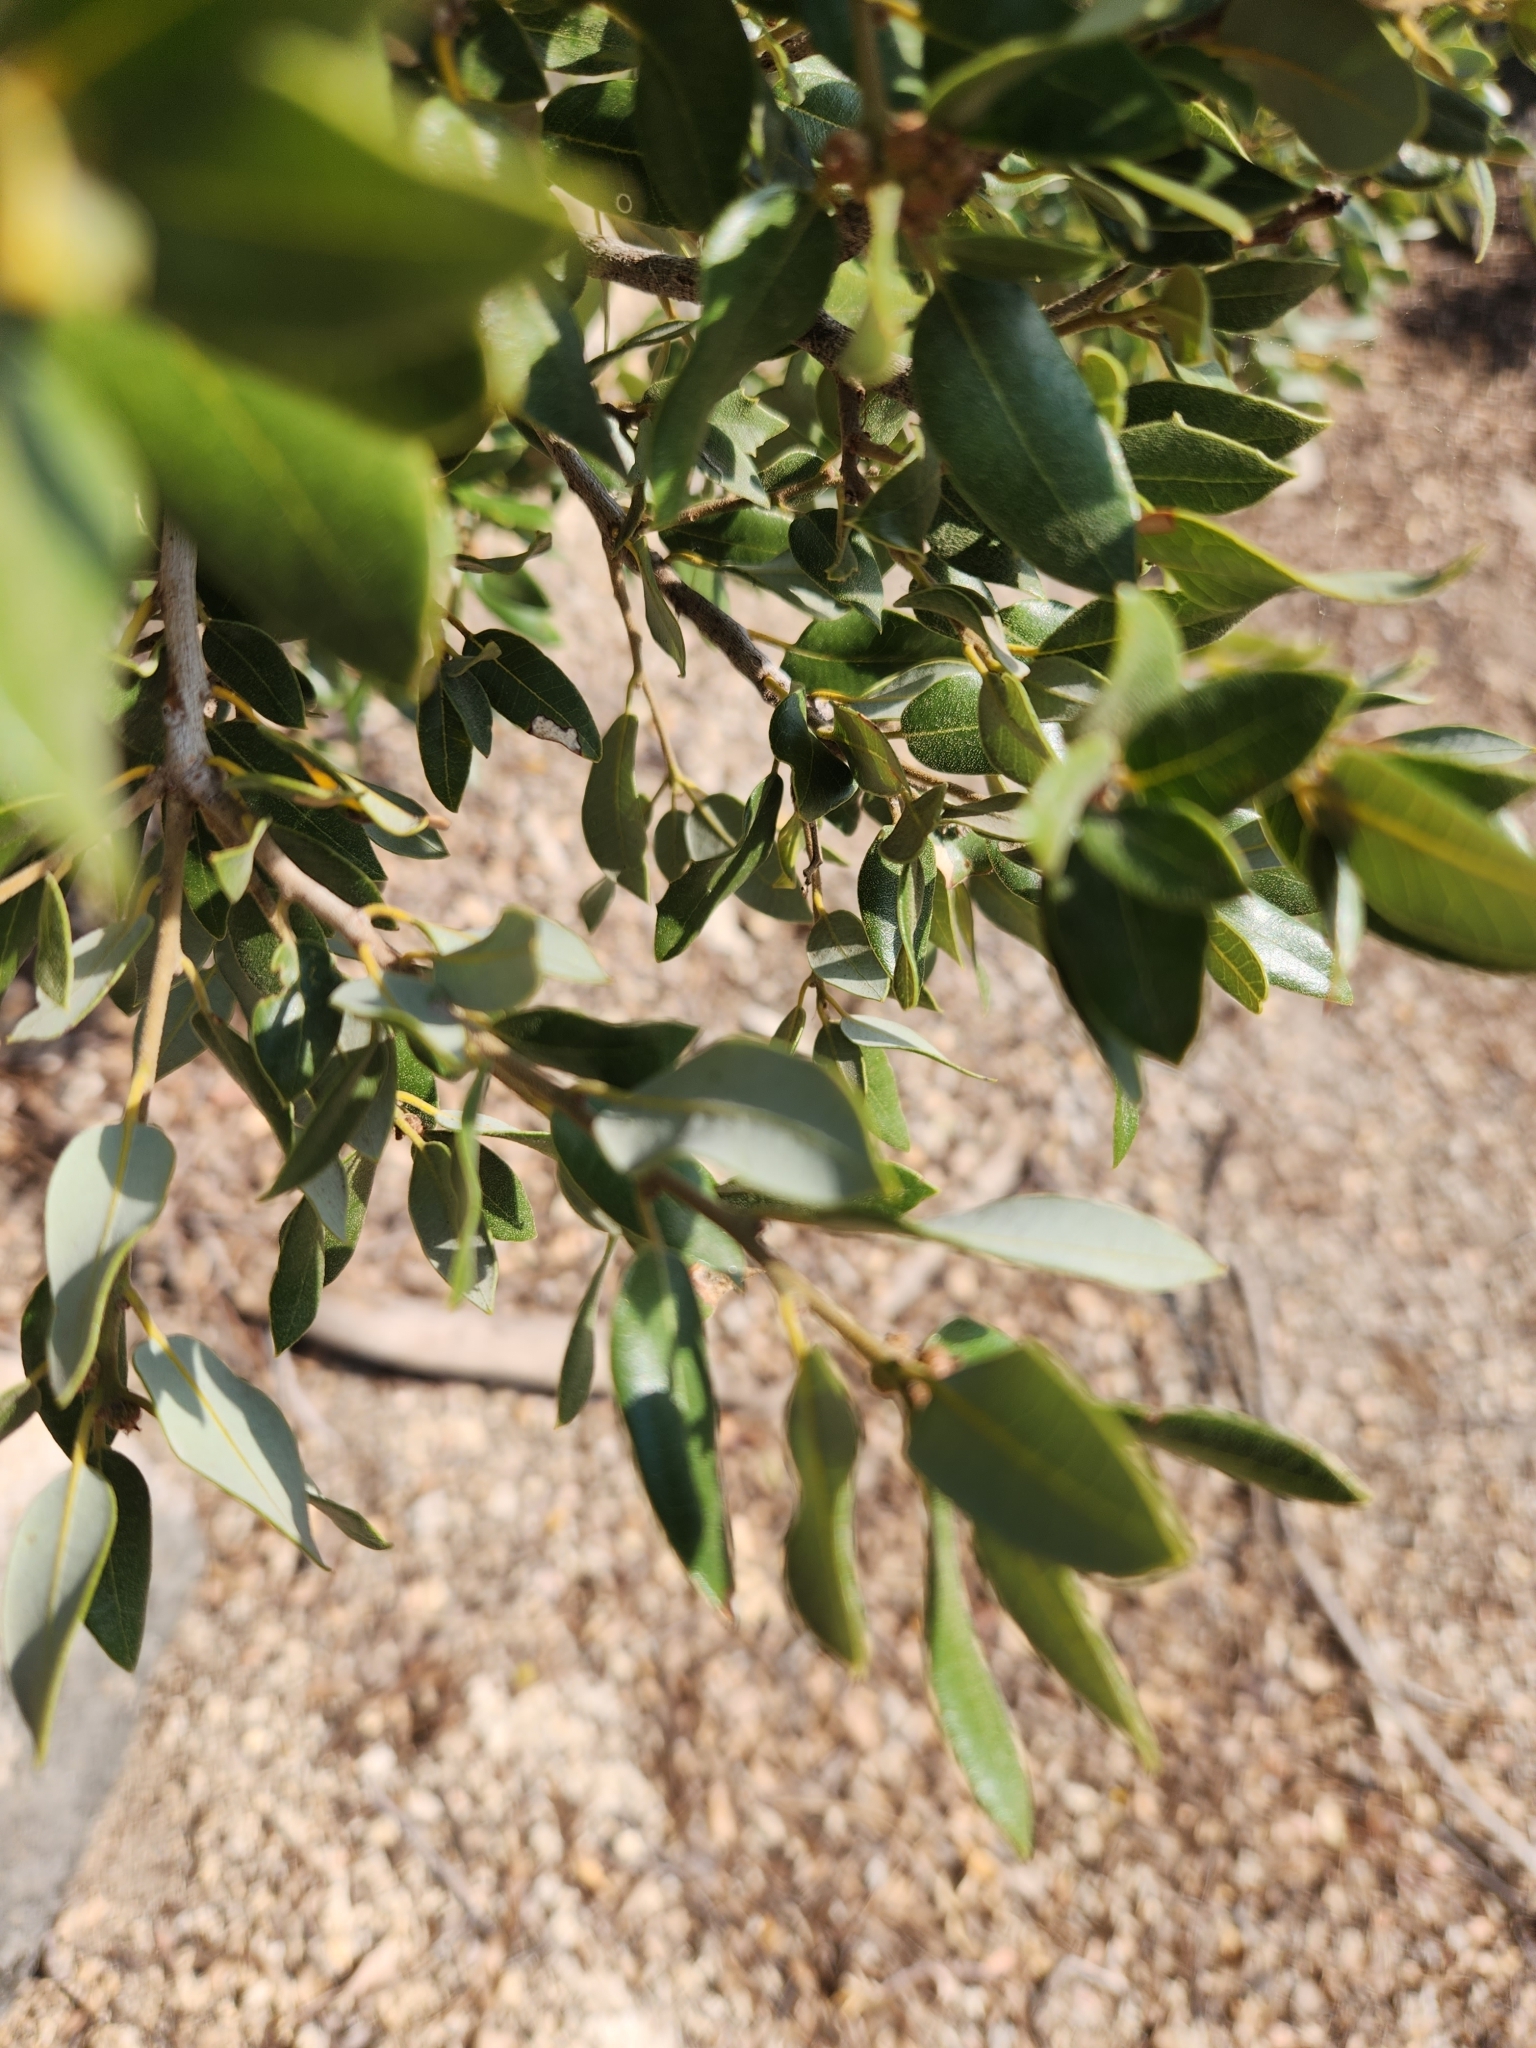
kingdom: Plantae
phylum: Tracheophyta
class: Magnoliopsida
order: Fagales
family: Fagaceae
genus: Quercus
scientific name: Quercus chrysolepis
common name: Canyon live oak
